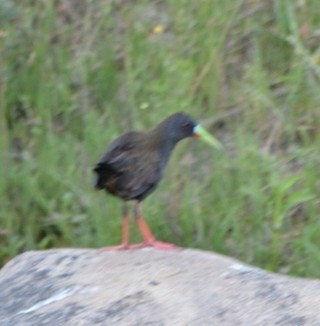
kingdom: Animalia
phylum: Chordata
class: Aves
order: Gruiformes
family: Rallidae
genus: Pardirallus
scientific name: Pardirallus sanguinolentus
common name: Plumbeous rail
